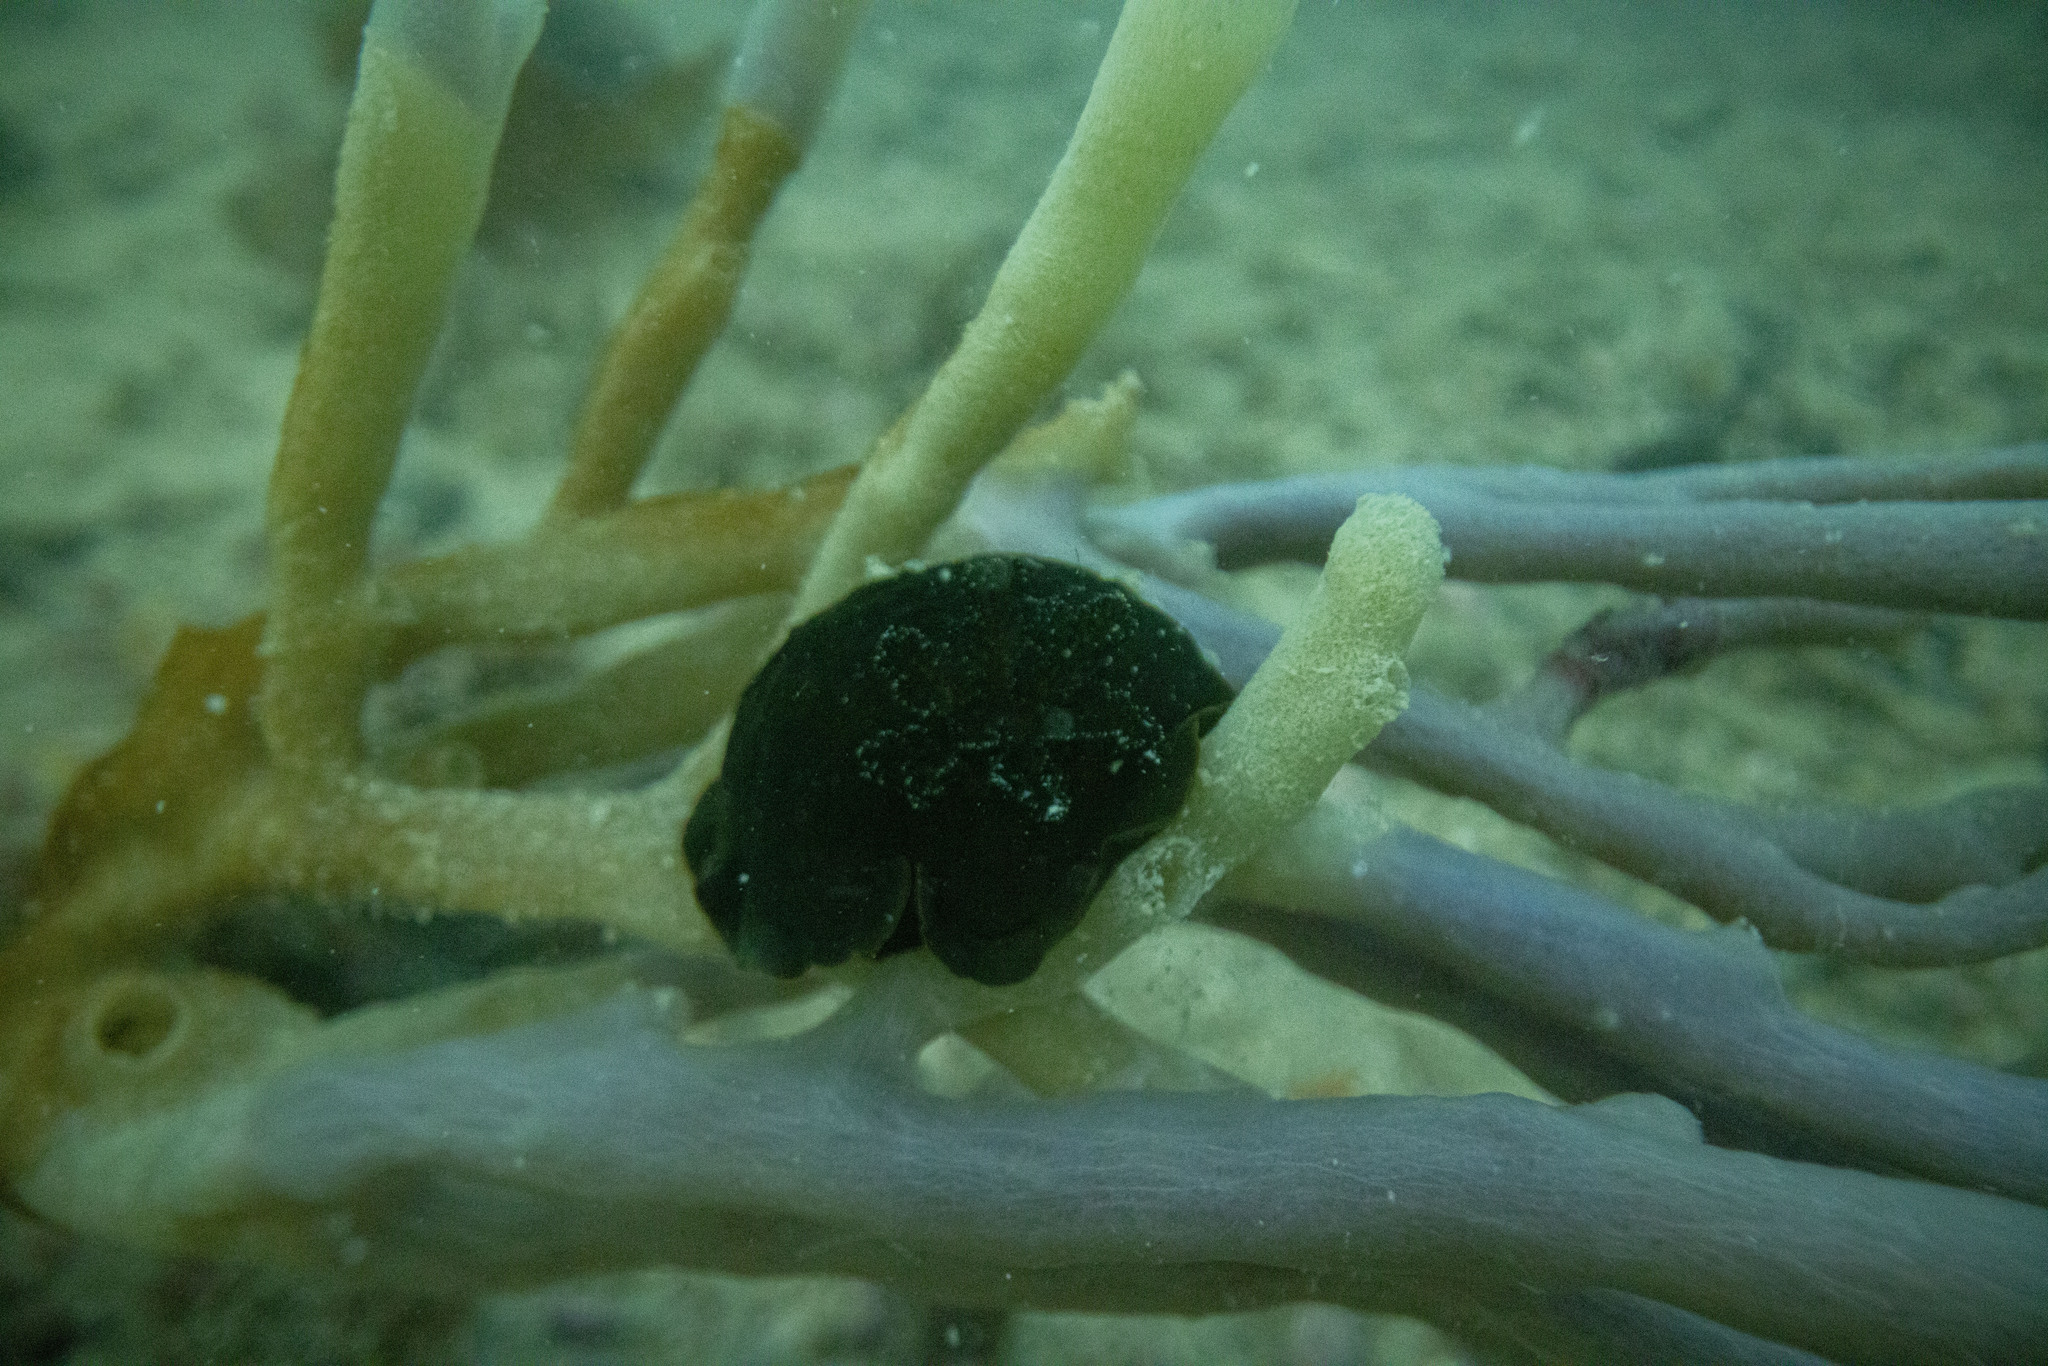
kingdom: Animalia
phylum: Mollusca
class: Gastropoda
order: Nudibranchia
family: Dendrodorididae
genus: Dendrodoris
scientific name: Dendrodoris nigra
